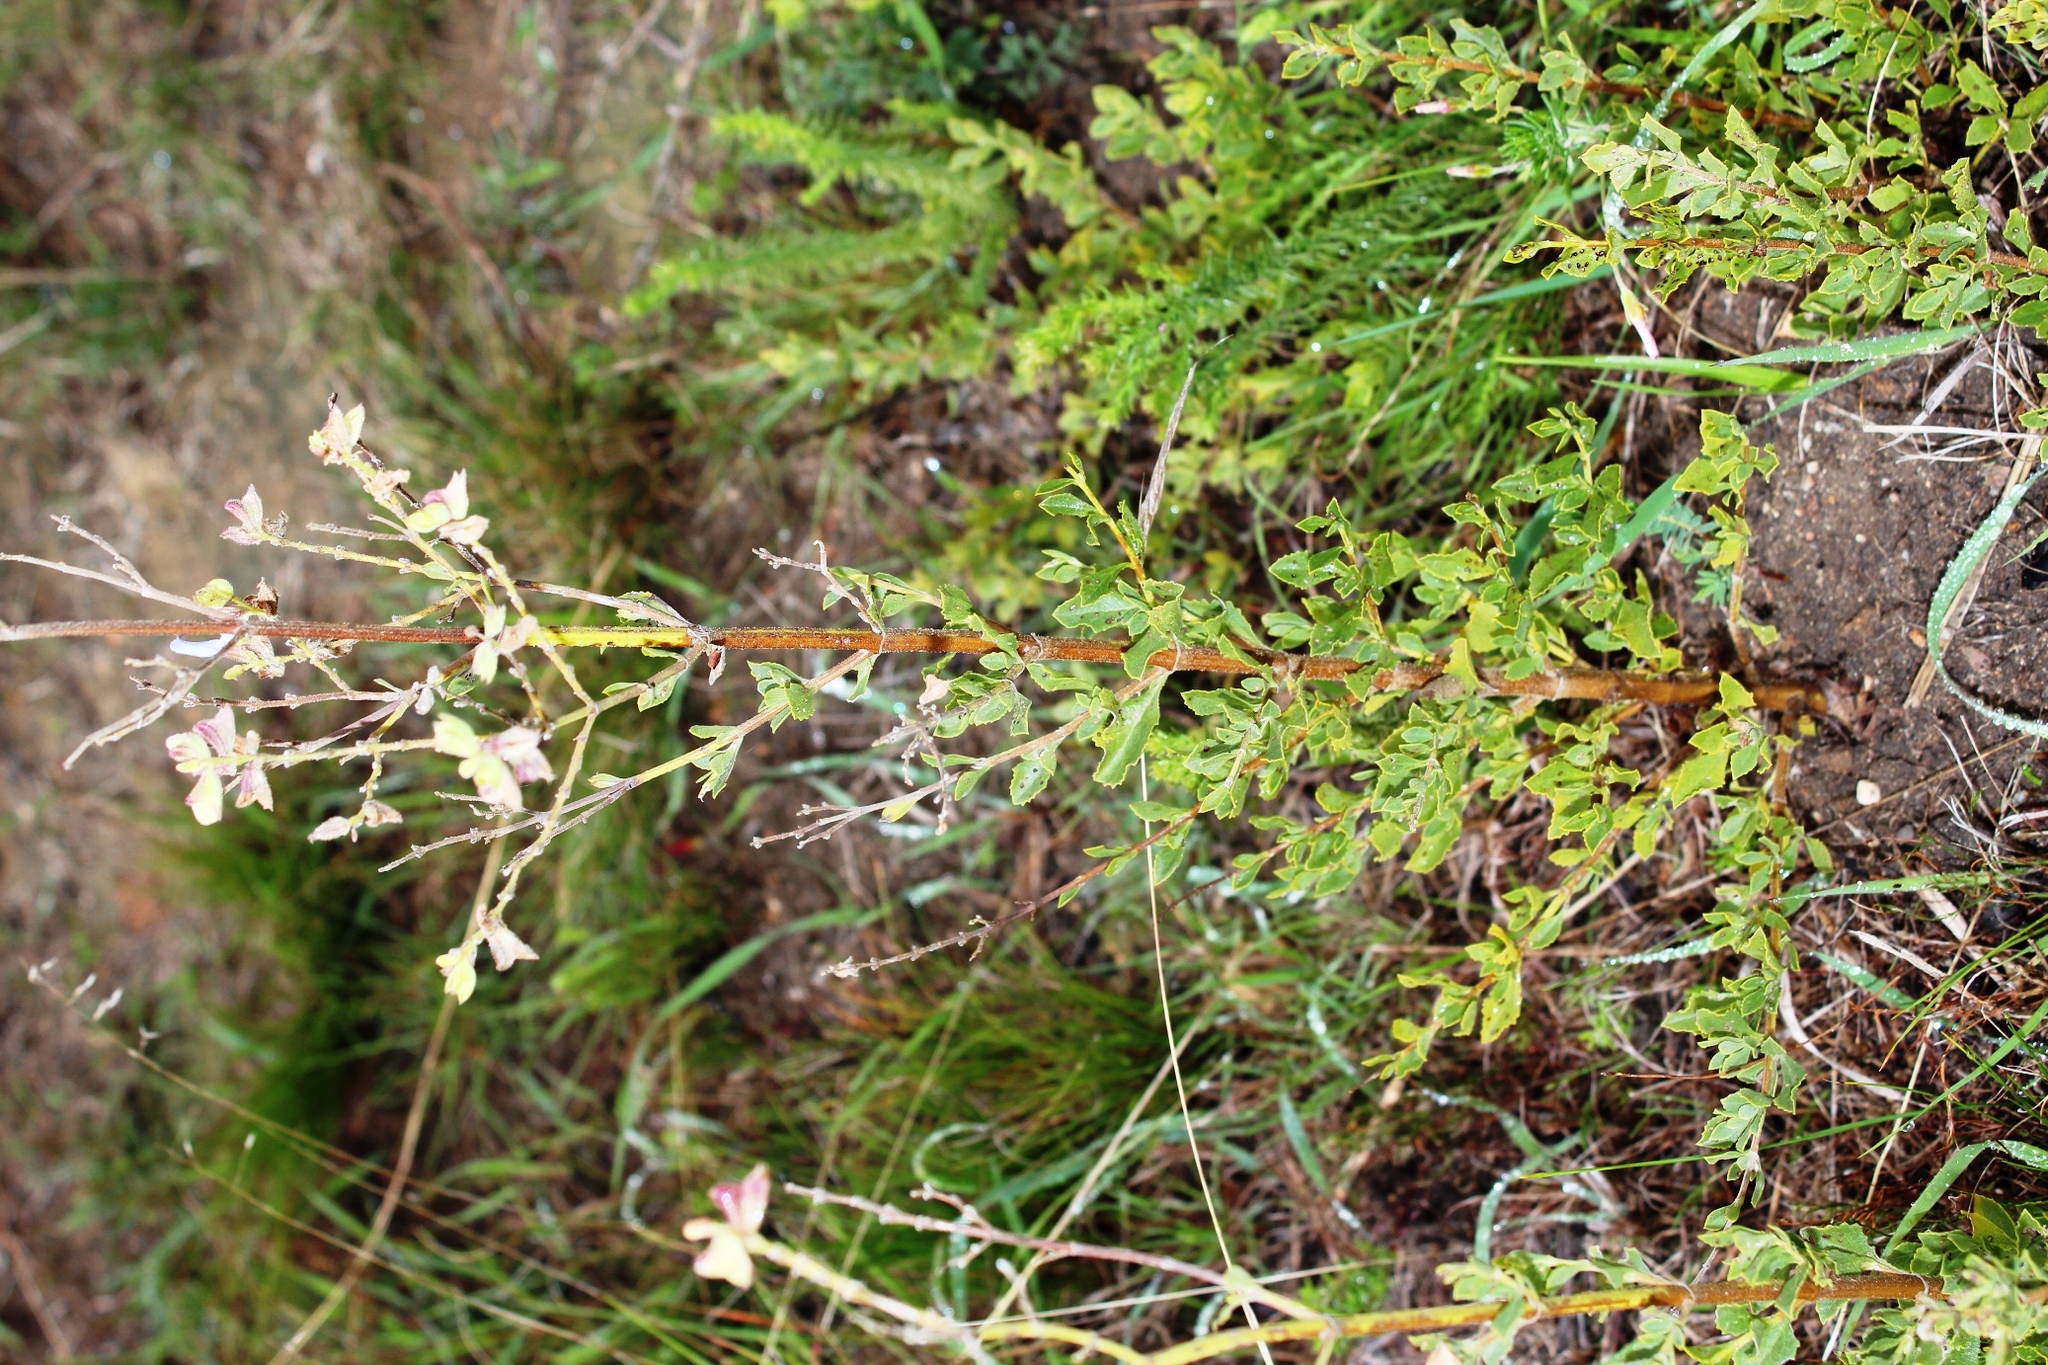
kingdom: Plantae
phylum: Tracheophyta
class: Magnoliopsida
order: Lamiales
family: Lamiaceae
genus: Salvia
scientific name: Salvia chamelaeagnea
